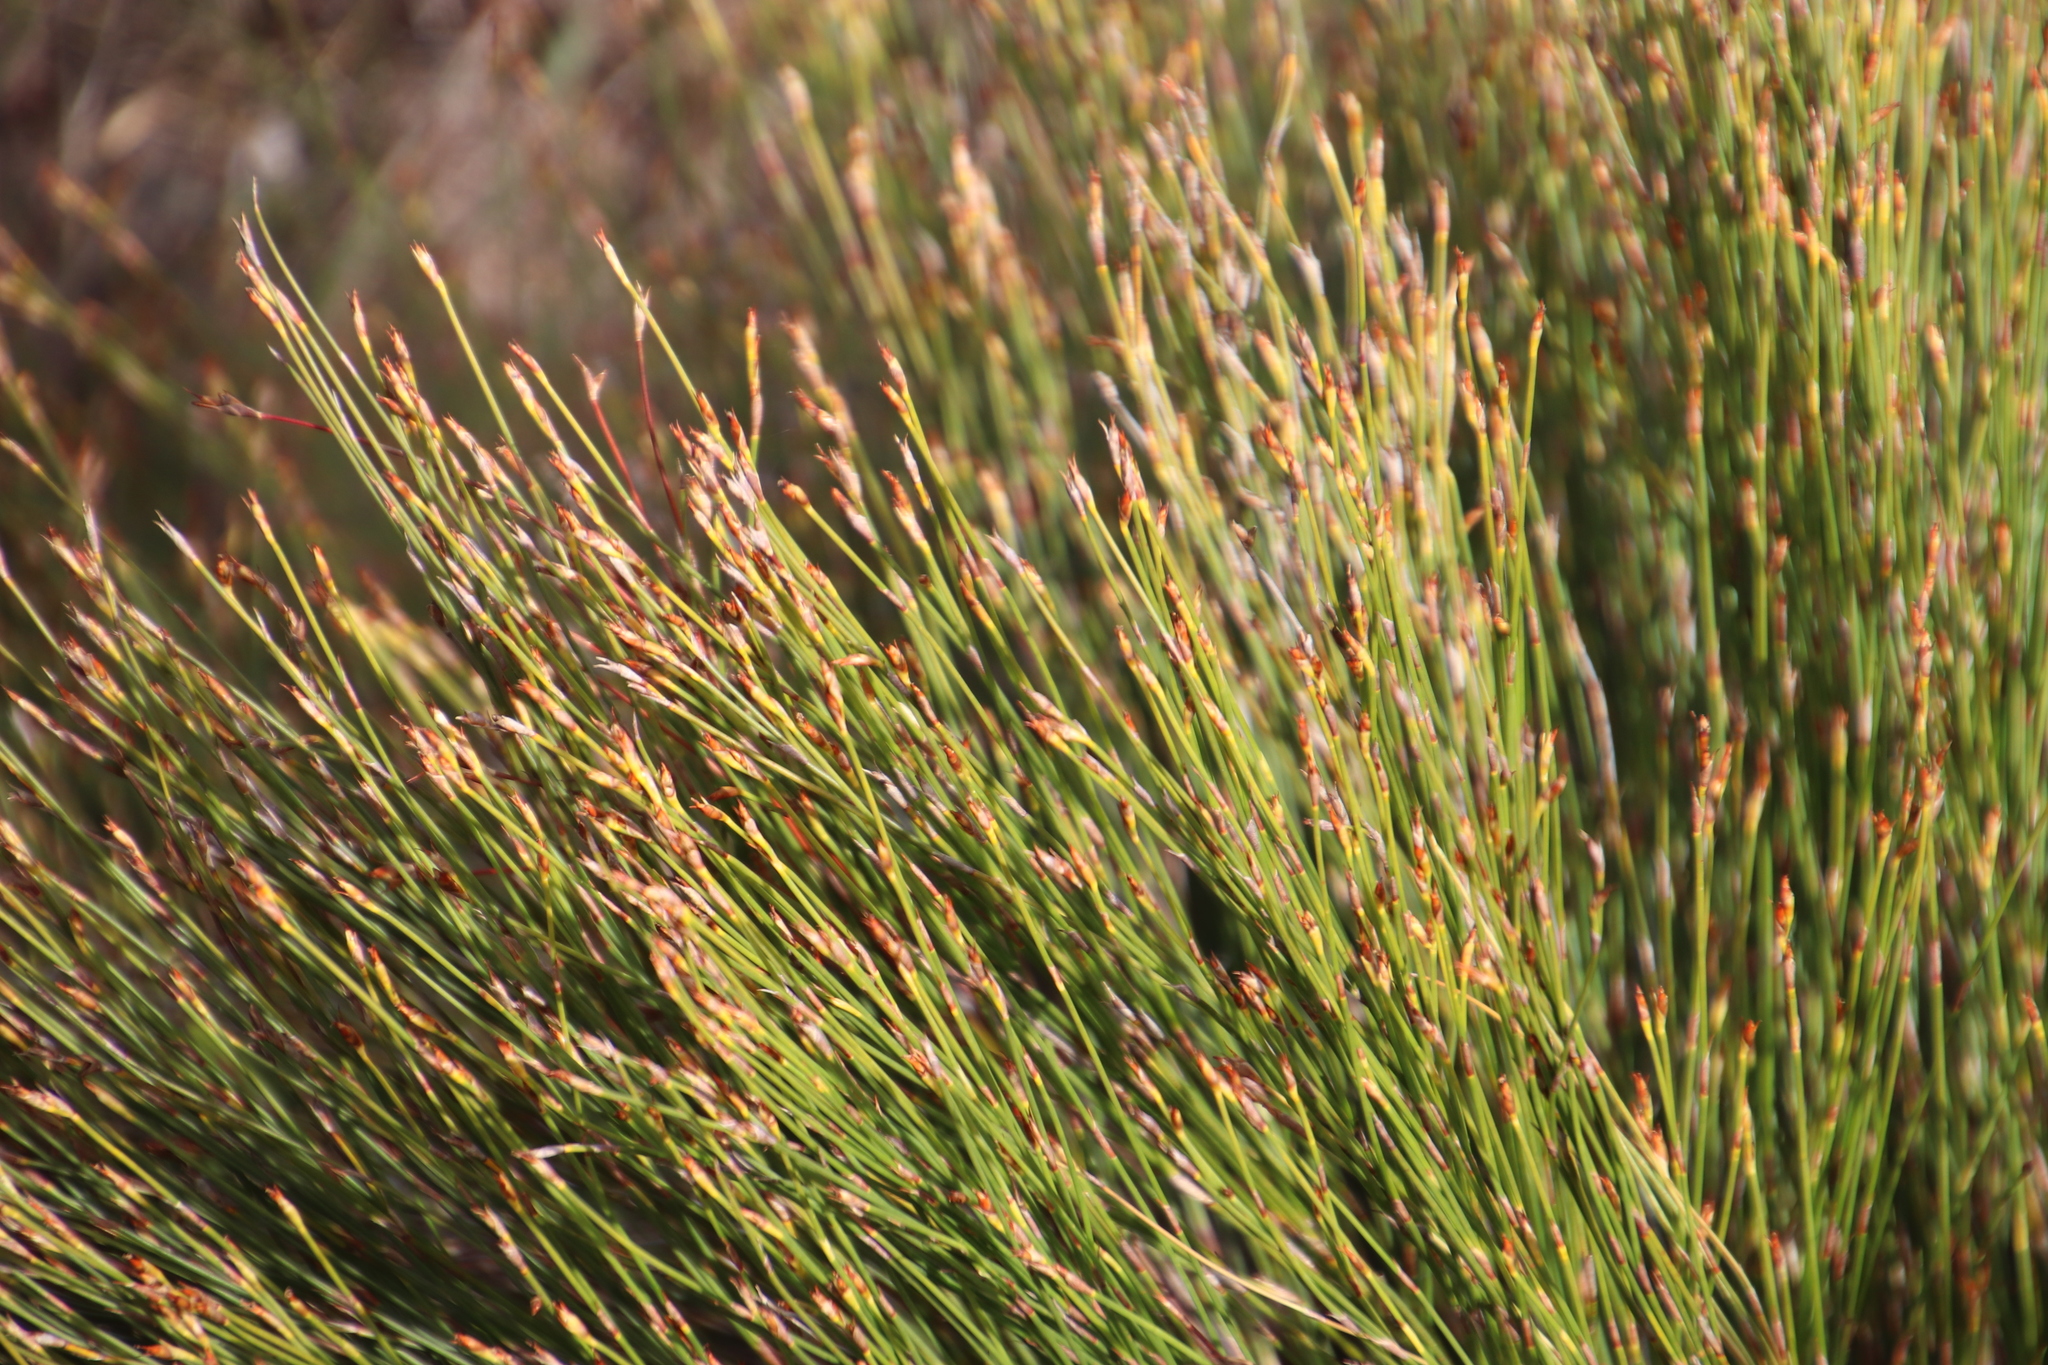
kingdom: Plantae
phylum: Tracheophyta
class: Liliopsida
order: Poales
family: Restionaceae
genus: Mastersiella
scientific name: Mastersiella digitata
